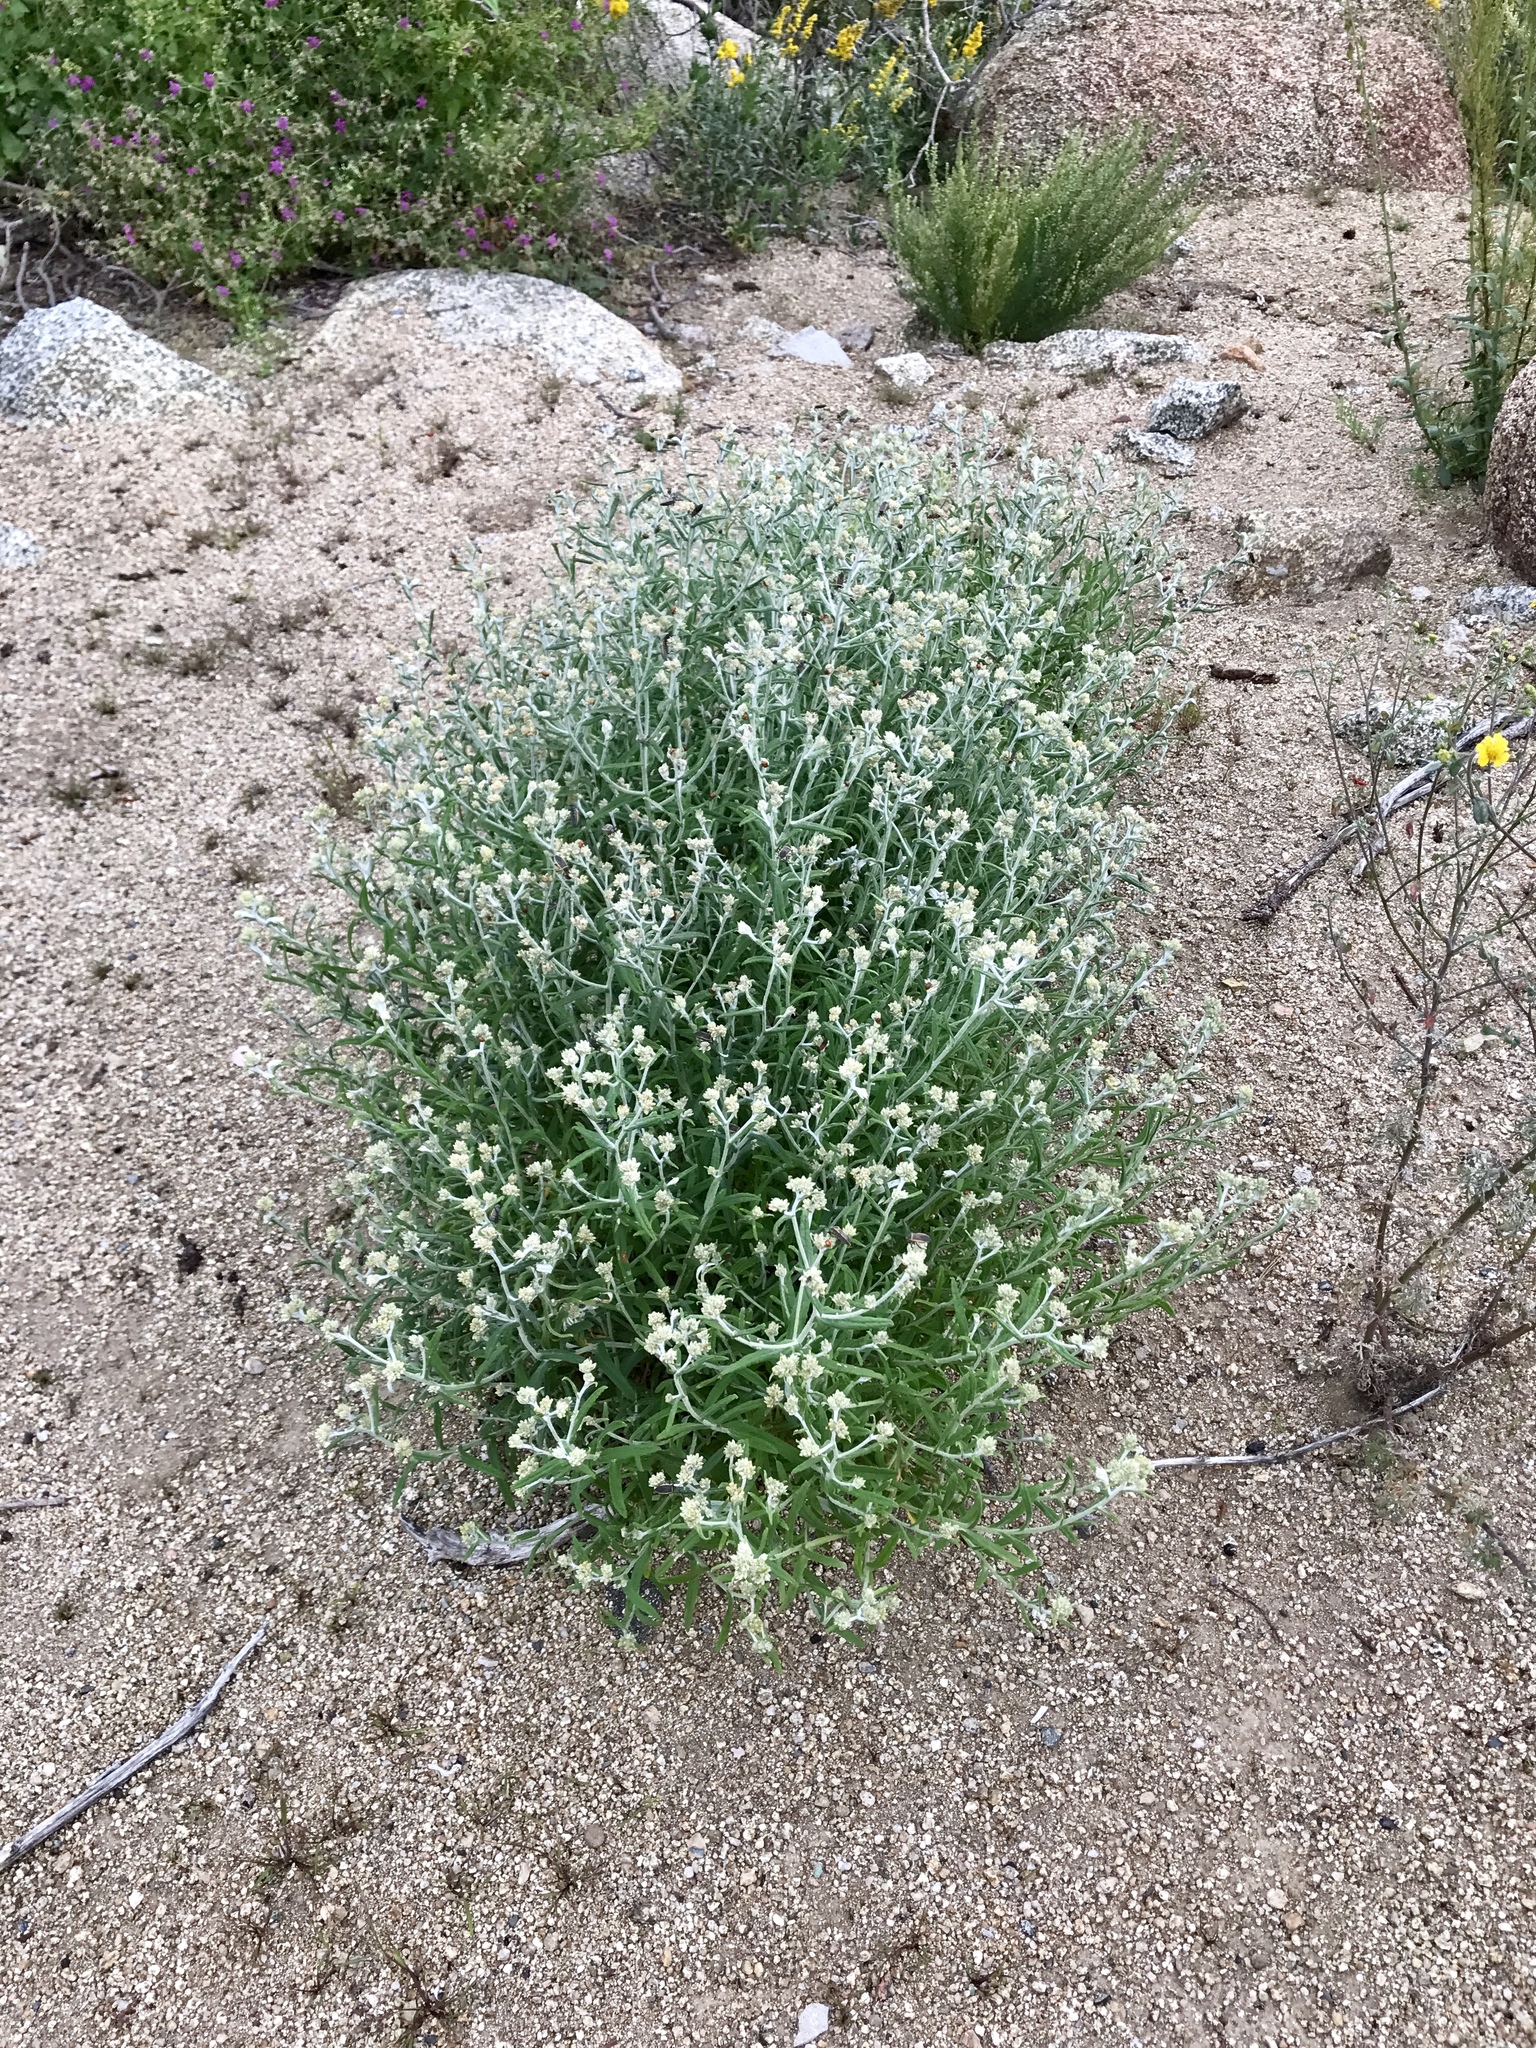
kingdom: Plantae
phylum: Tracheophyta
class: Magnoliopsida
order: Asterales
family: Asteraceae
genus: Pseudognaphalium
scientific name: Pseudognaphalium macounii
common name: Clammy cudweed
